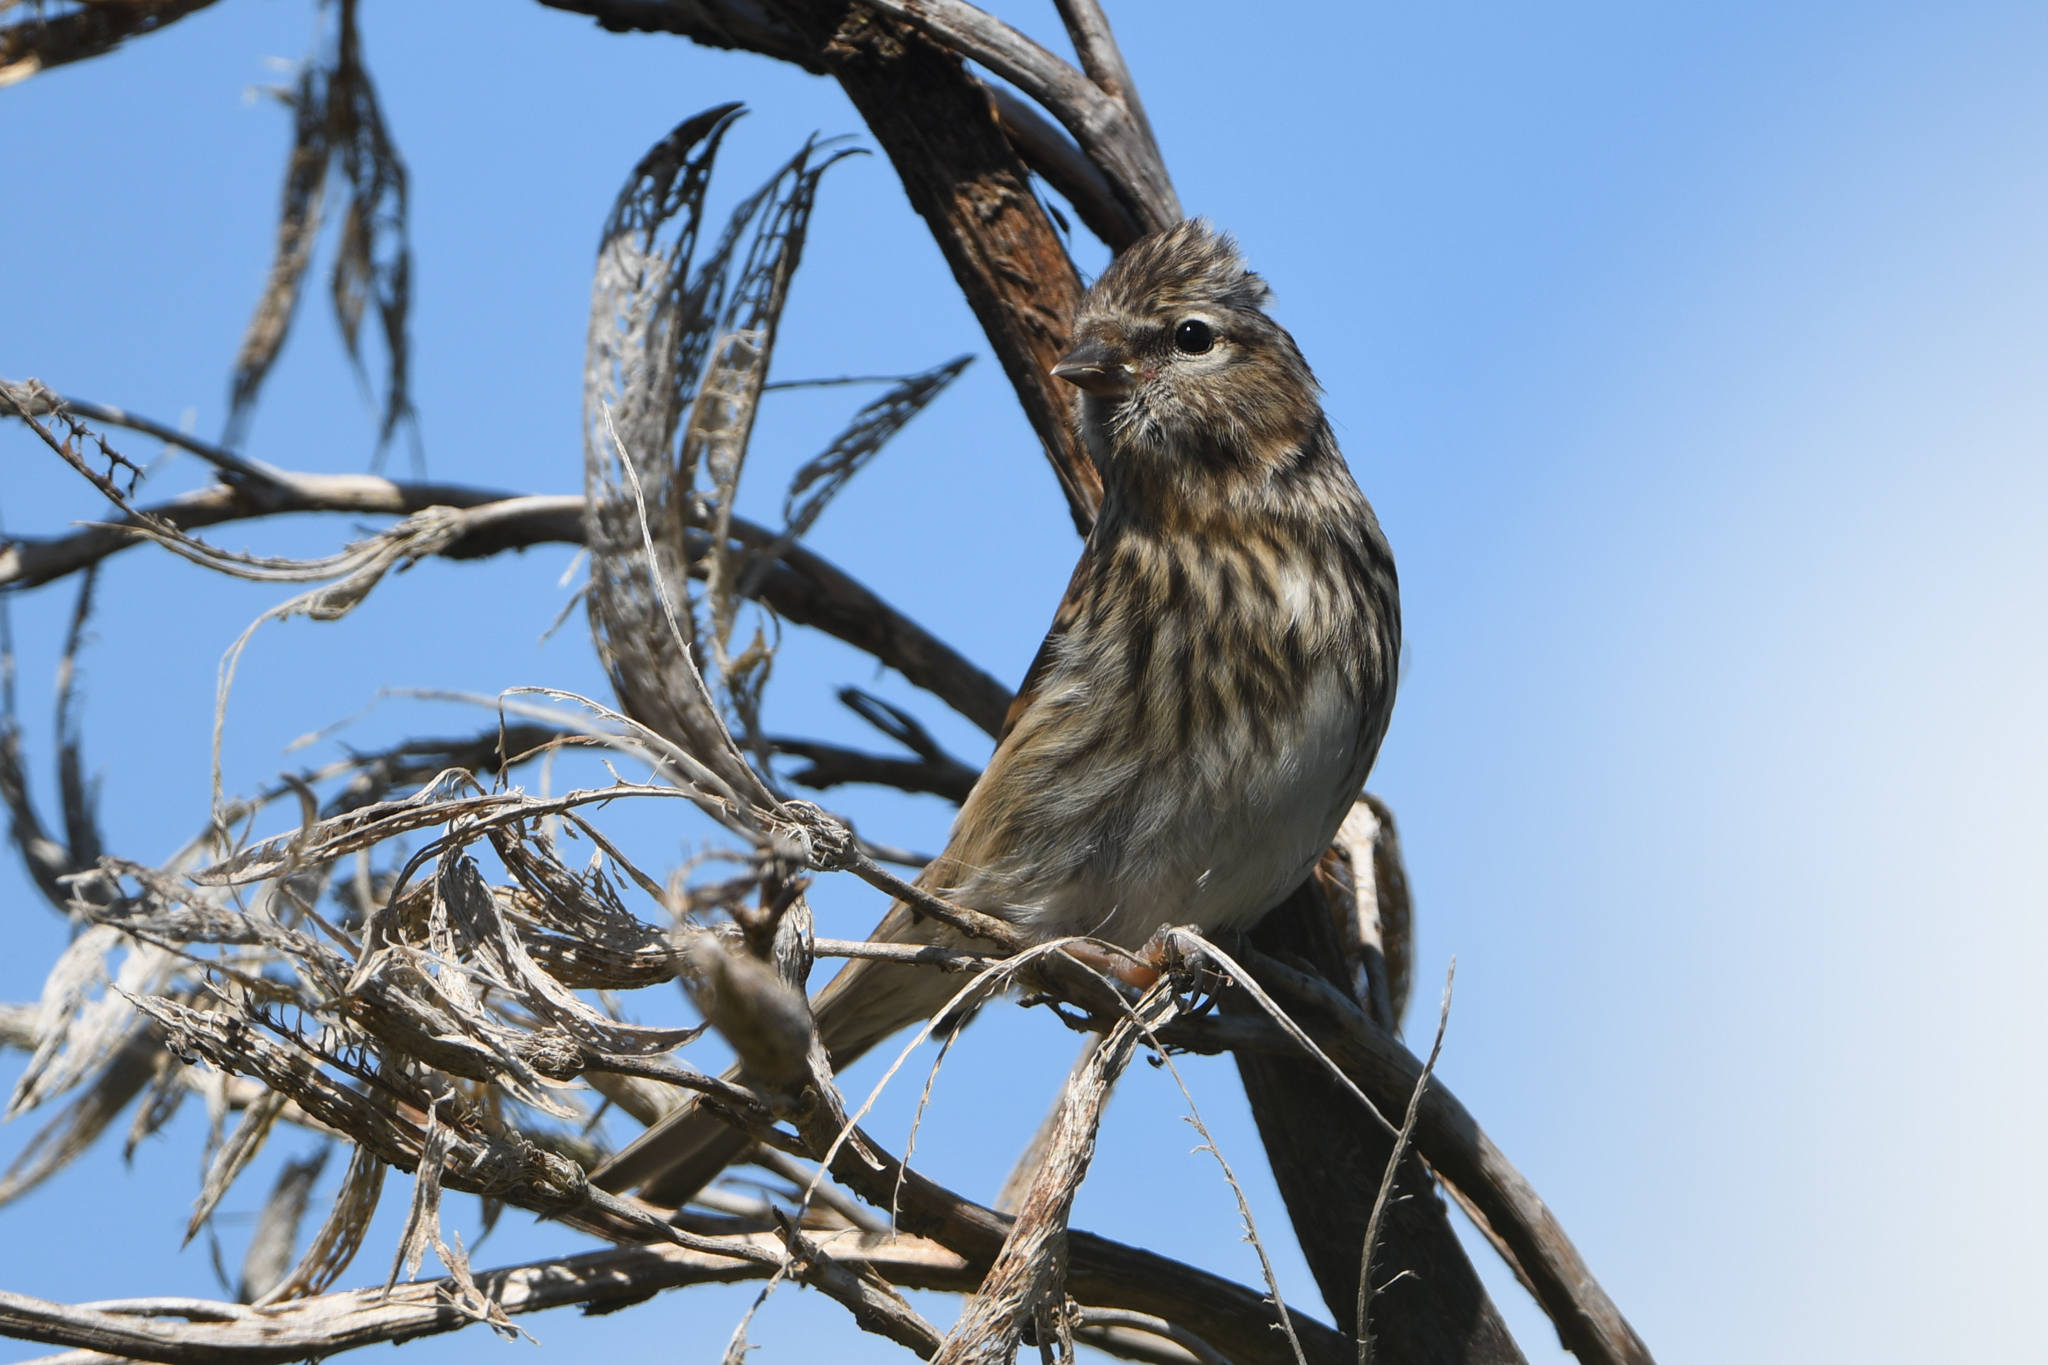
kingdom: Animalia
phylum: Chordata
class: Aves
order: Passeriformes
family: Fringillidae
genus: Acanthis
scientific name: Acanthis flammea
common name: Common redpoll
